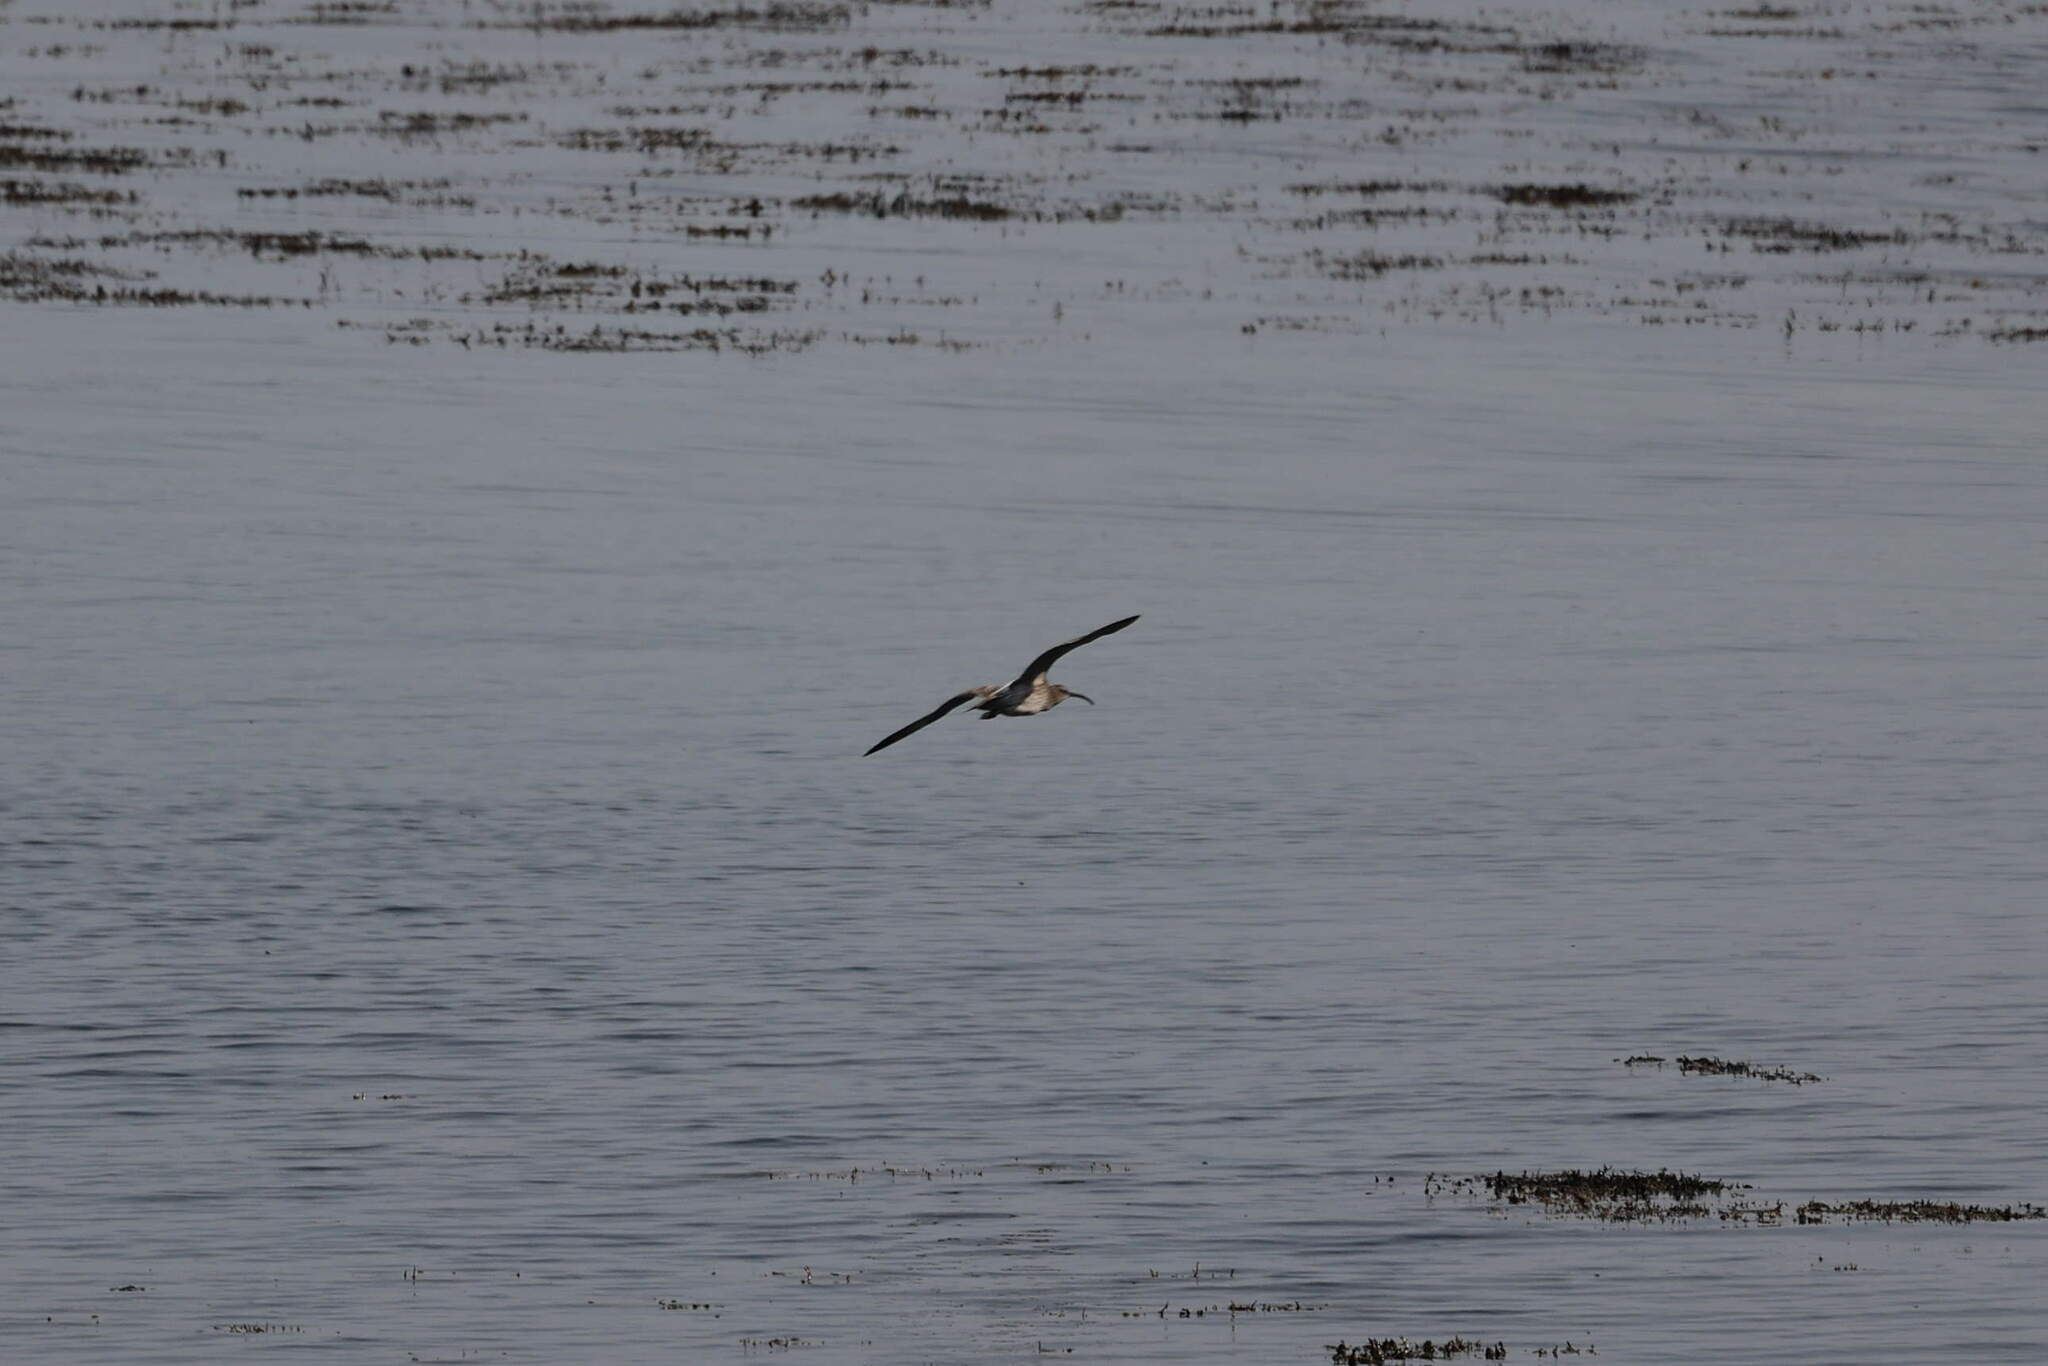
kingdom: Animalia
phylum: Chordata
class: Aves
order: Charadriiformes
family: Scolopacidae
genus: Numenius
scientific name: Numenius phaeopus
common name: Whimbrel
